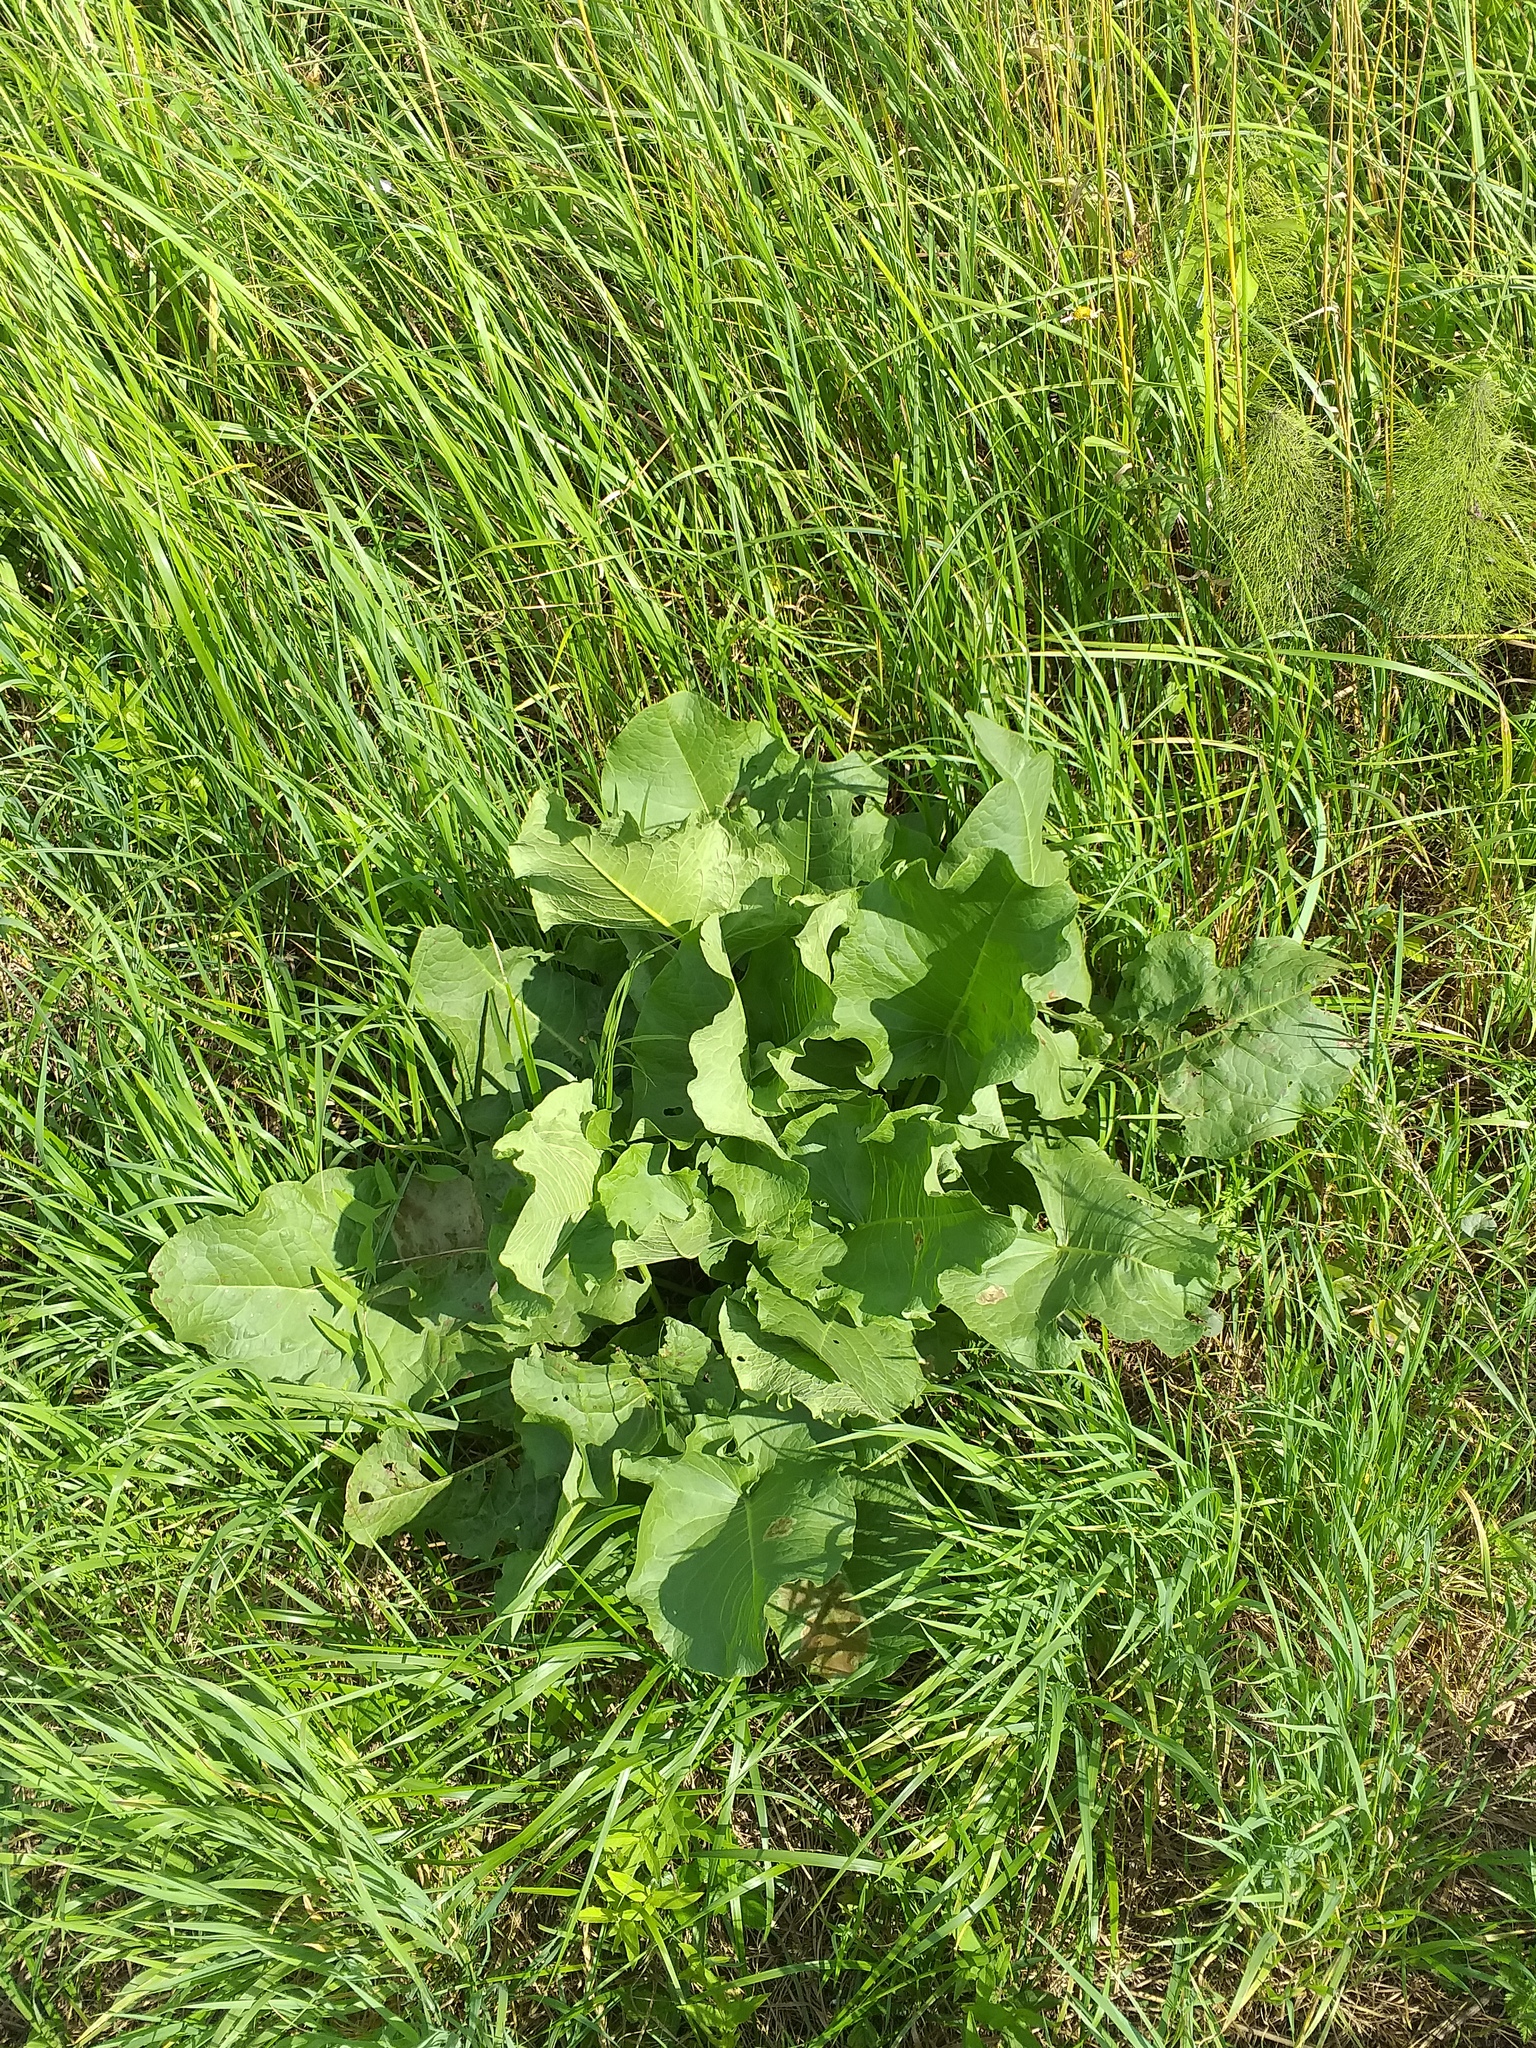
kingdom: Plantae
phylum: Tracheophyta
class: Magnoliopsida
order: Caryophyllales
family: Polygonaceae
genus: Rumex
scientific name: Rumex confertus
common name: Russian dock
